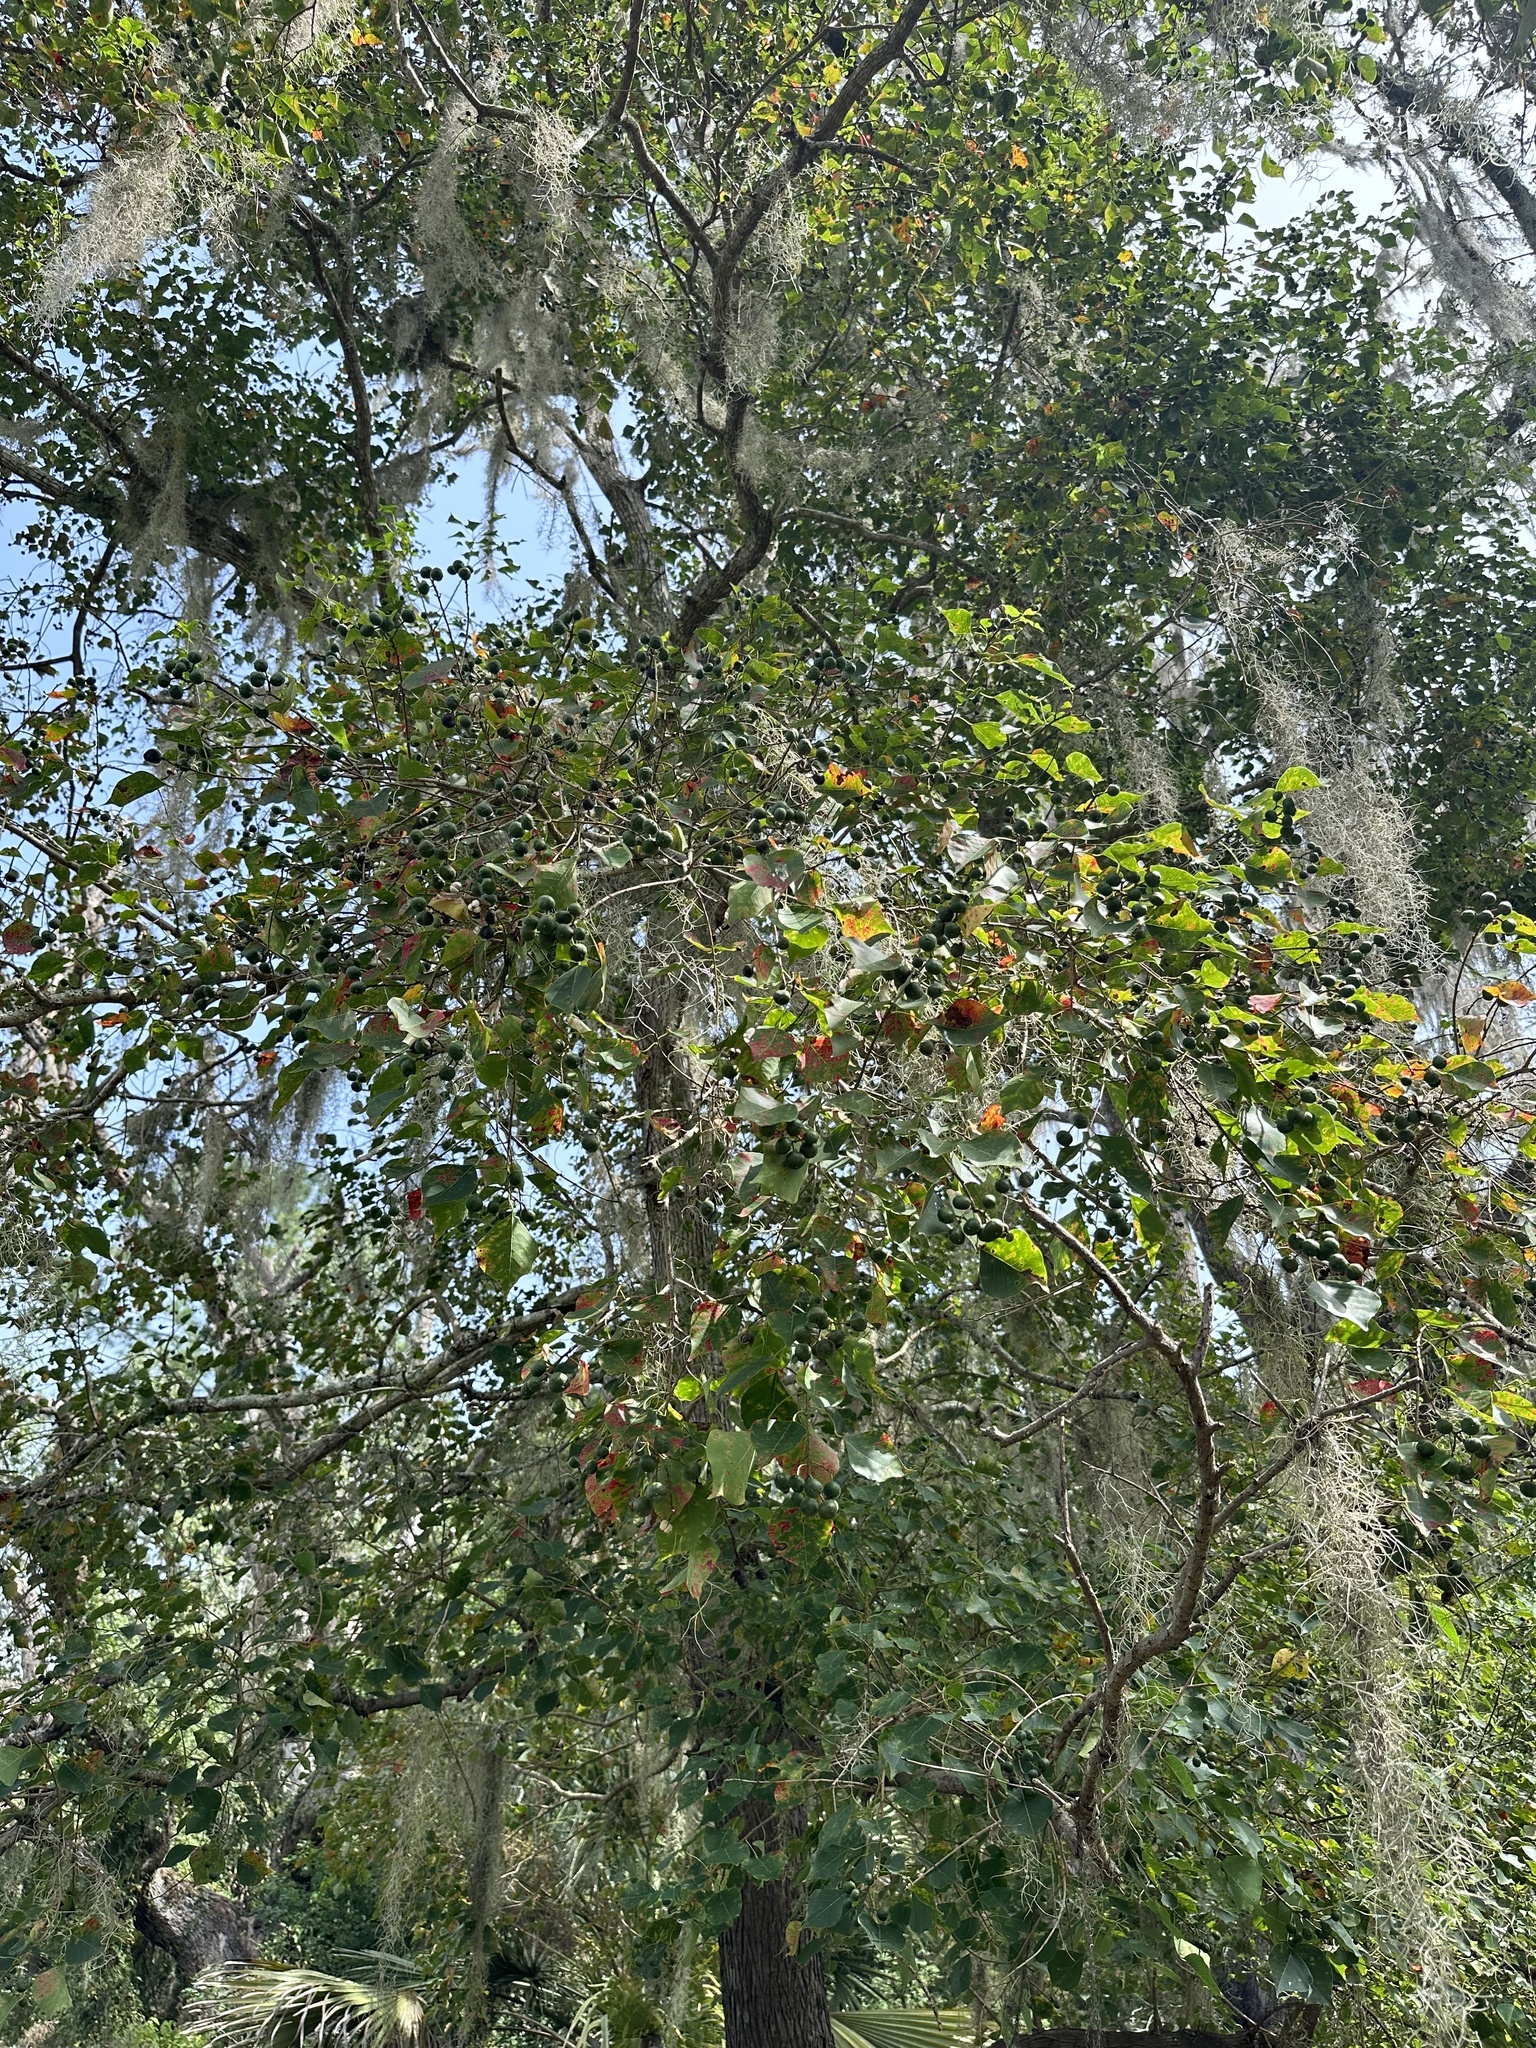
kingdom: Plantae
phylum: Tracheophyta
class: Magnoliopsida
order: Malpighiales
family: Euphorbiaceae
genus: Triadica
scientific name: Triadica sebifera
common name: Chinese tallow
